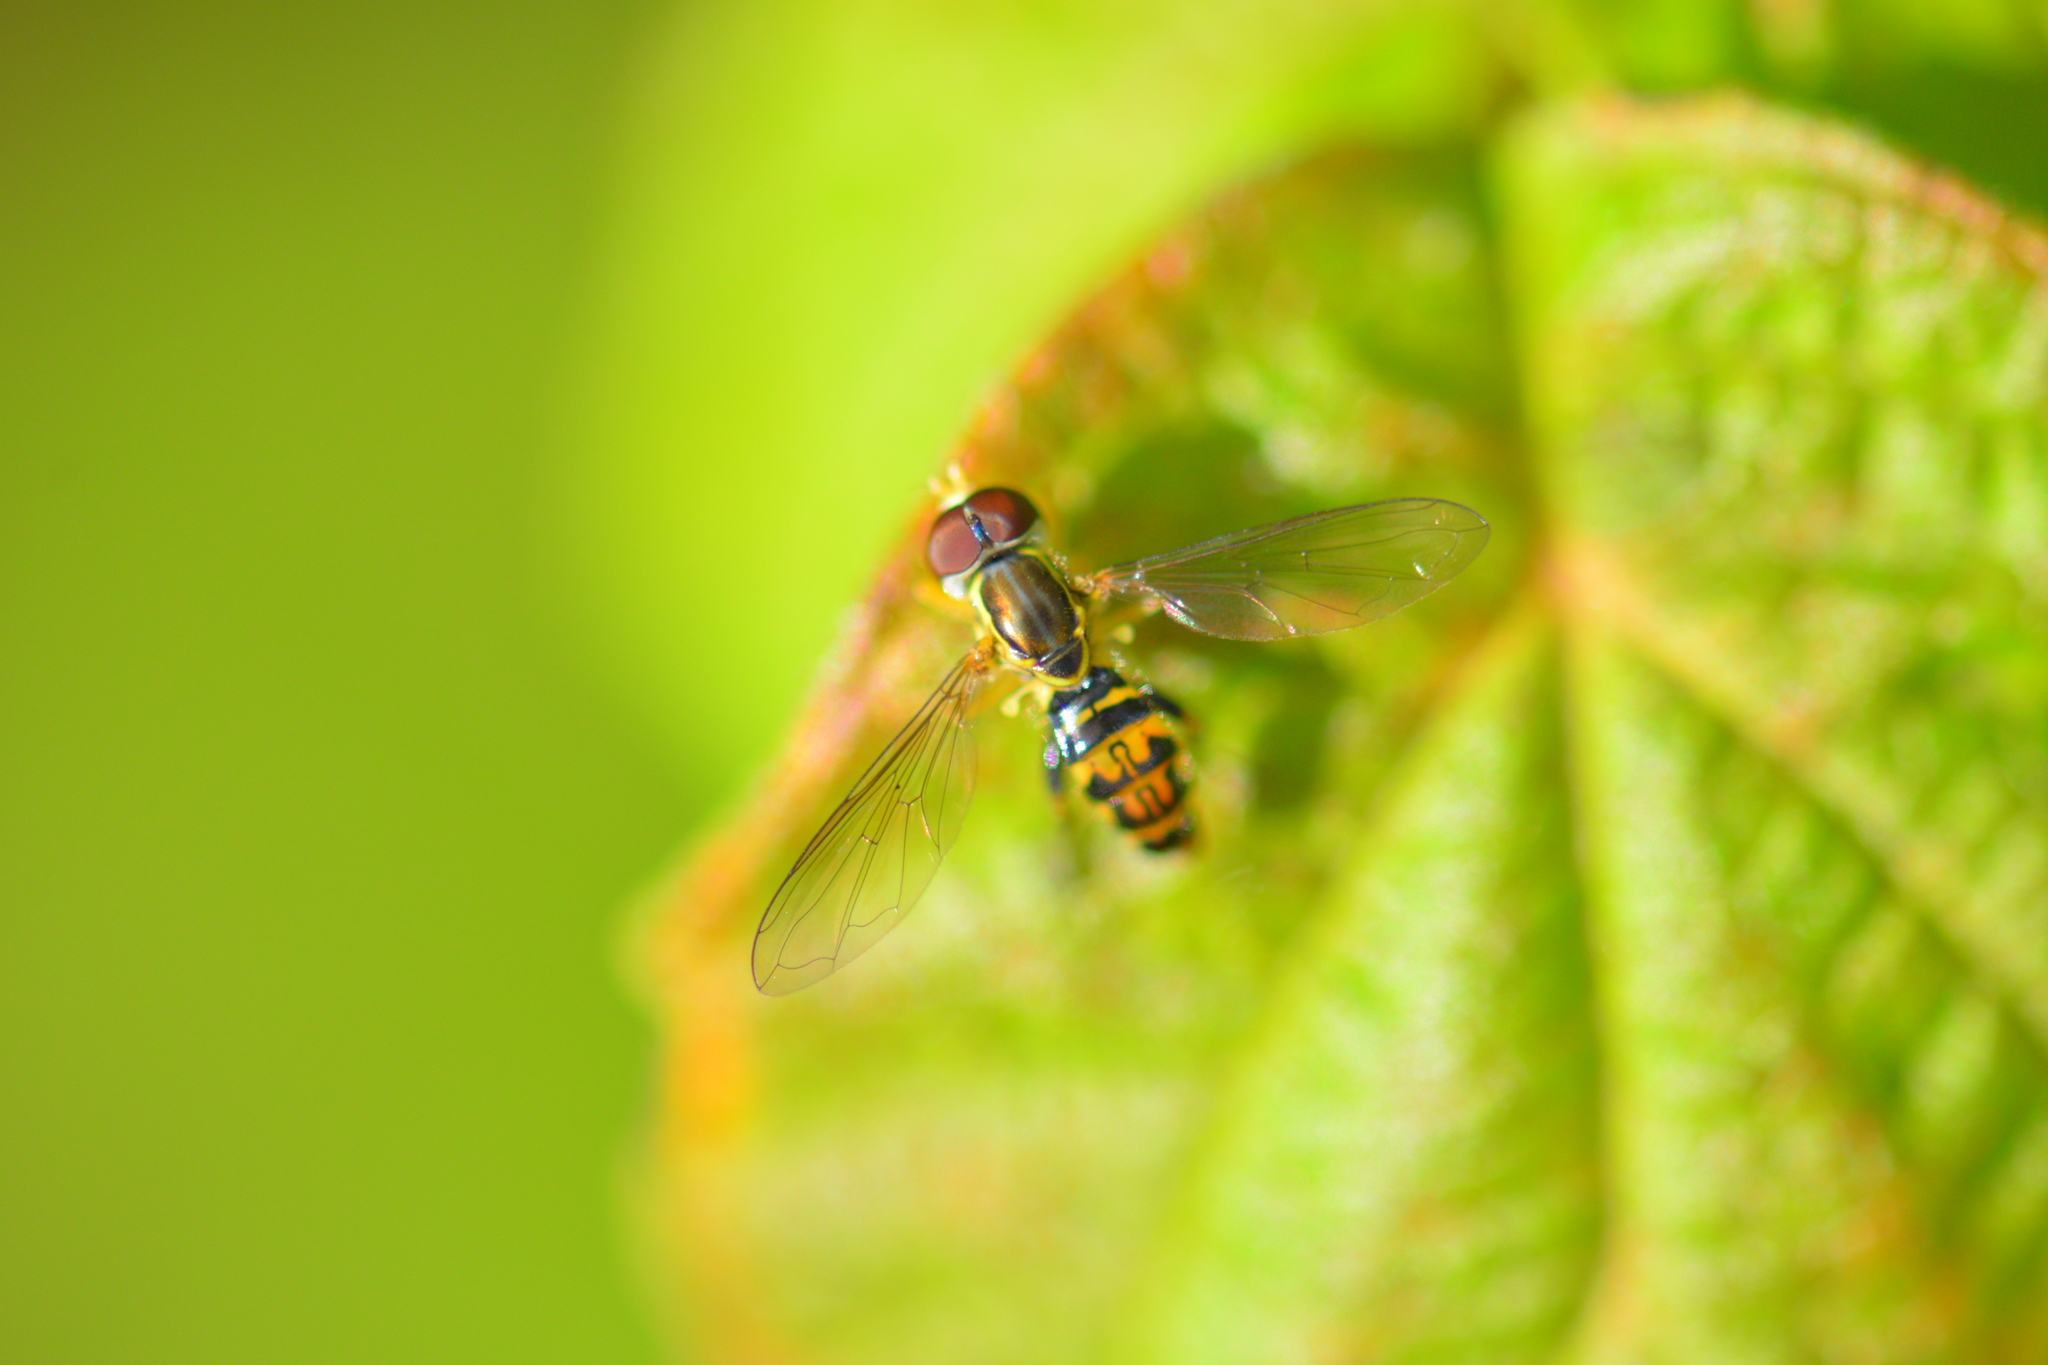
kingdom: Animalia
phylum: Arthropoda
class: Insecta
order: Diptera
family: Syrphidae
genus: Toxomerus
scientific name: Toxomerus geminatus
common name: Eastern calligrapher
